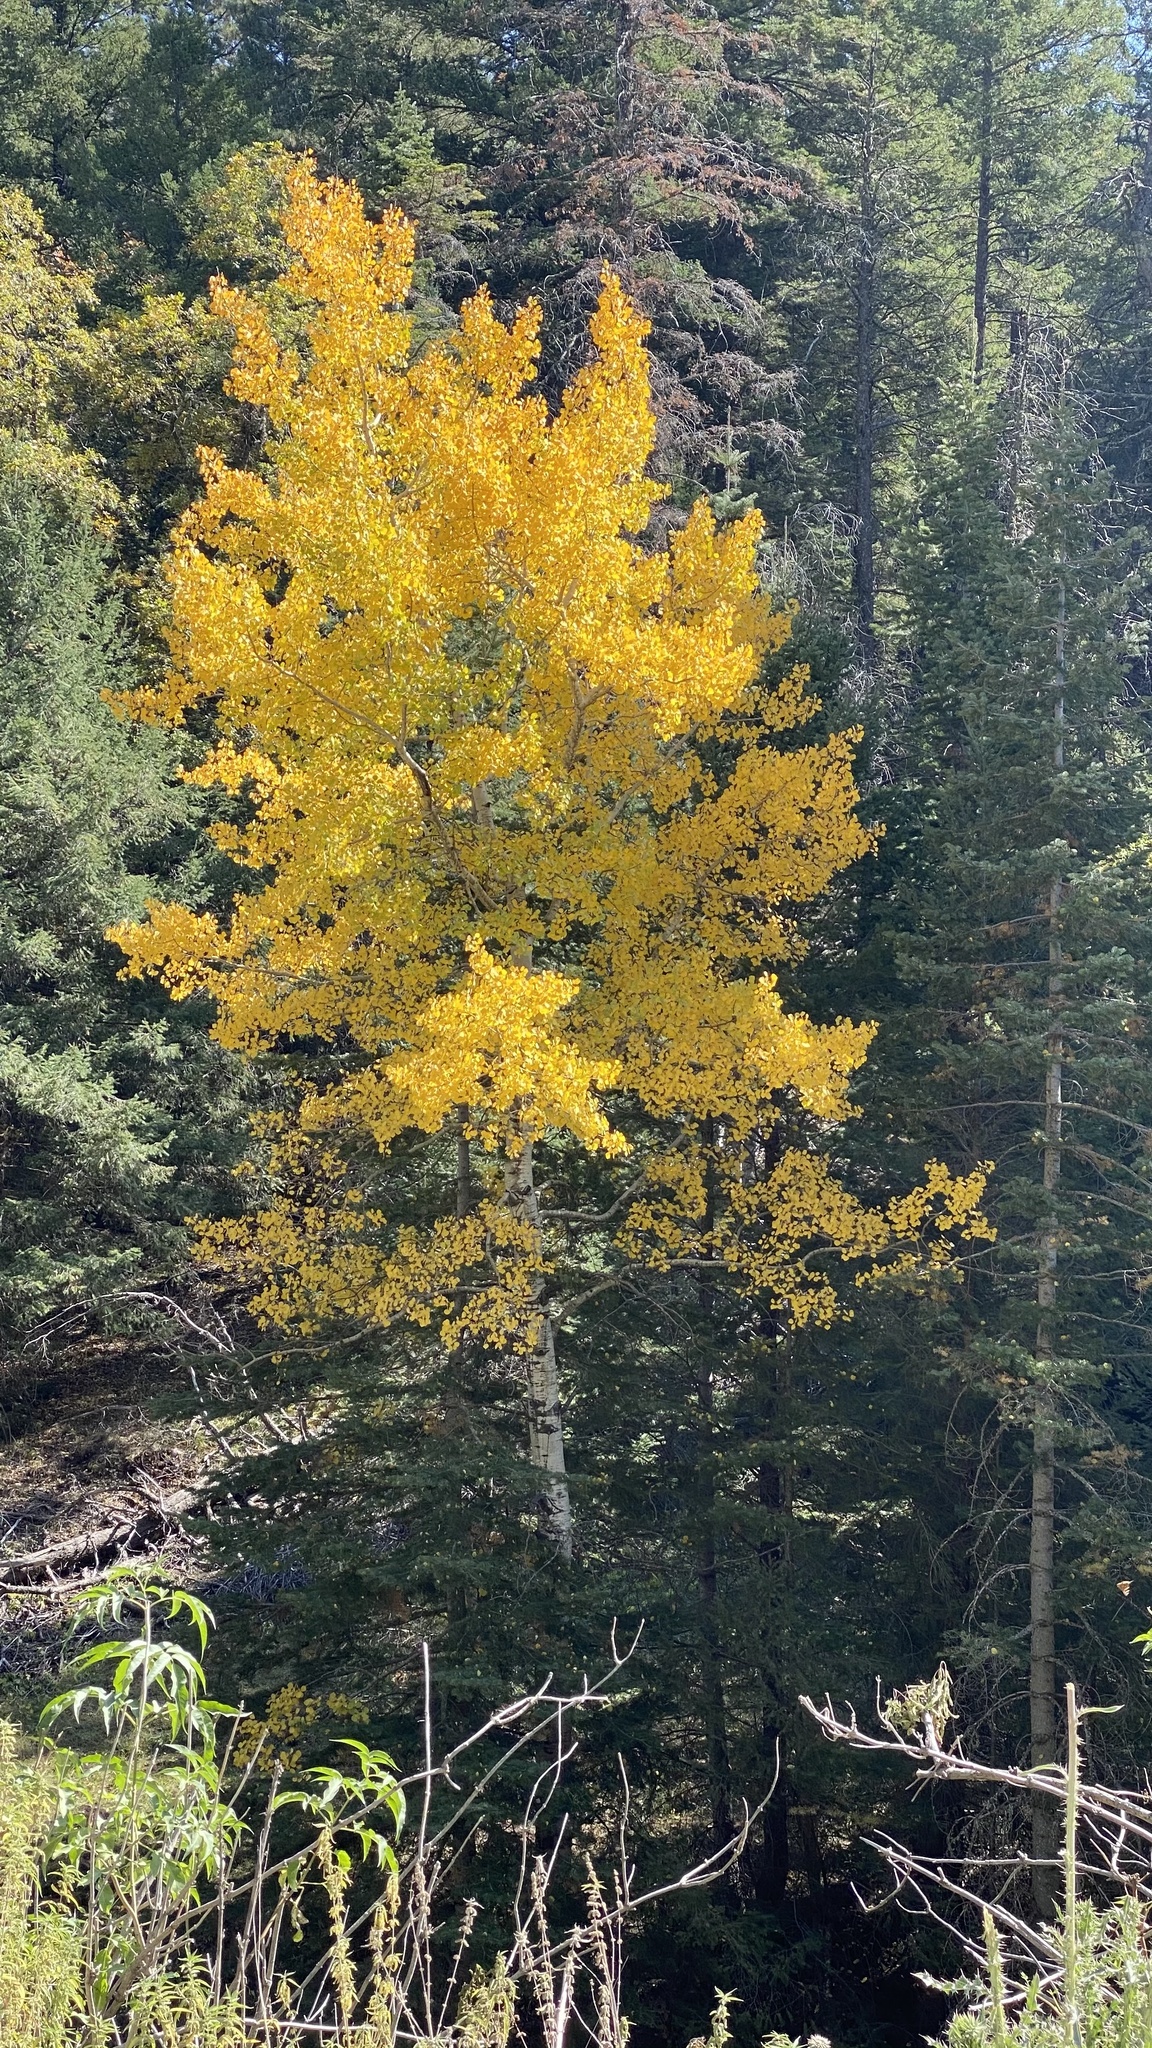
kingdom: Plantae
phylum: Tracheophyta
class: Magnoliopsida
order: Malpighiales
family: Salicaceae
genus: Populus
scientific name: Populus tremuloides
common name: Quaking aspen
